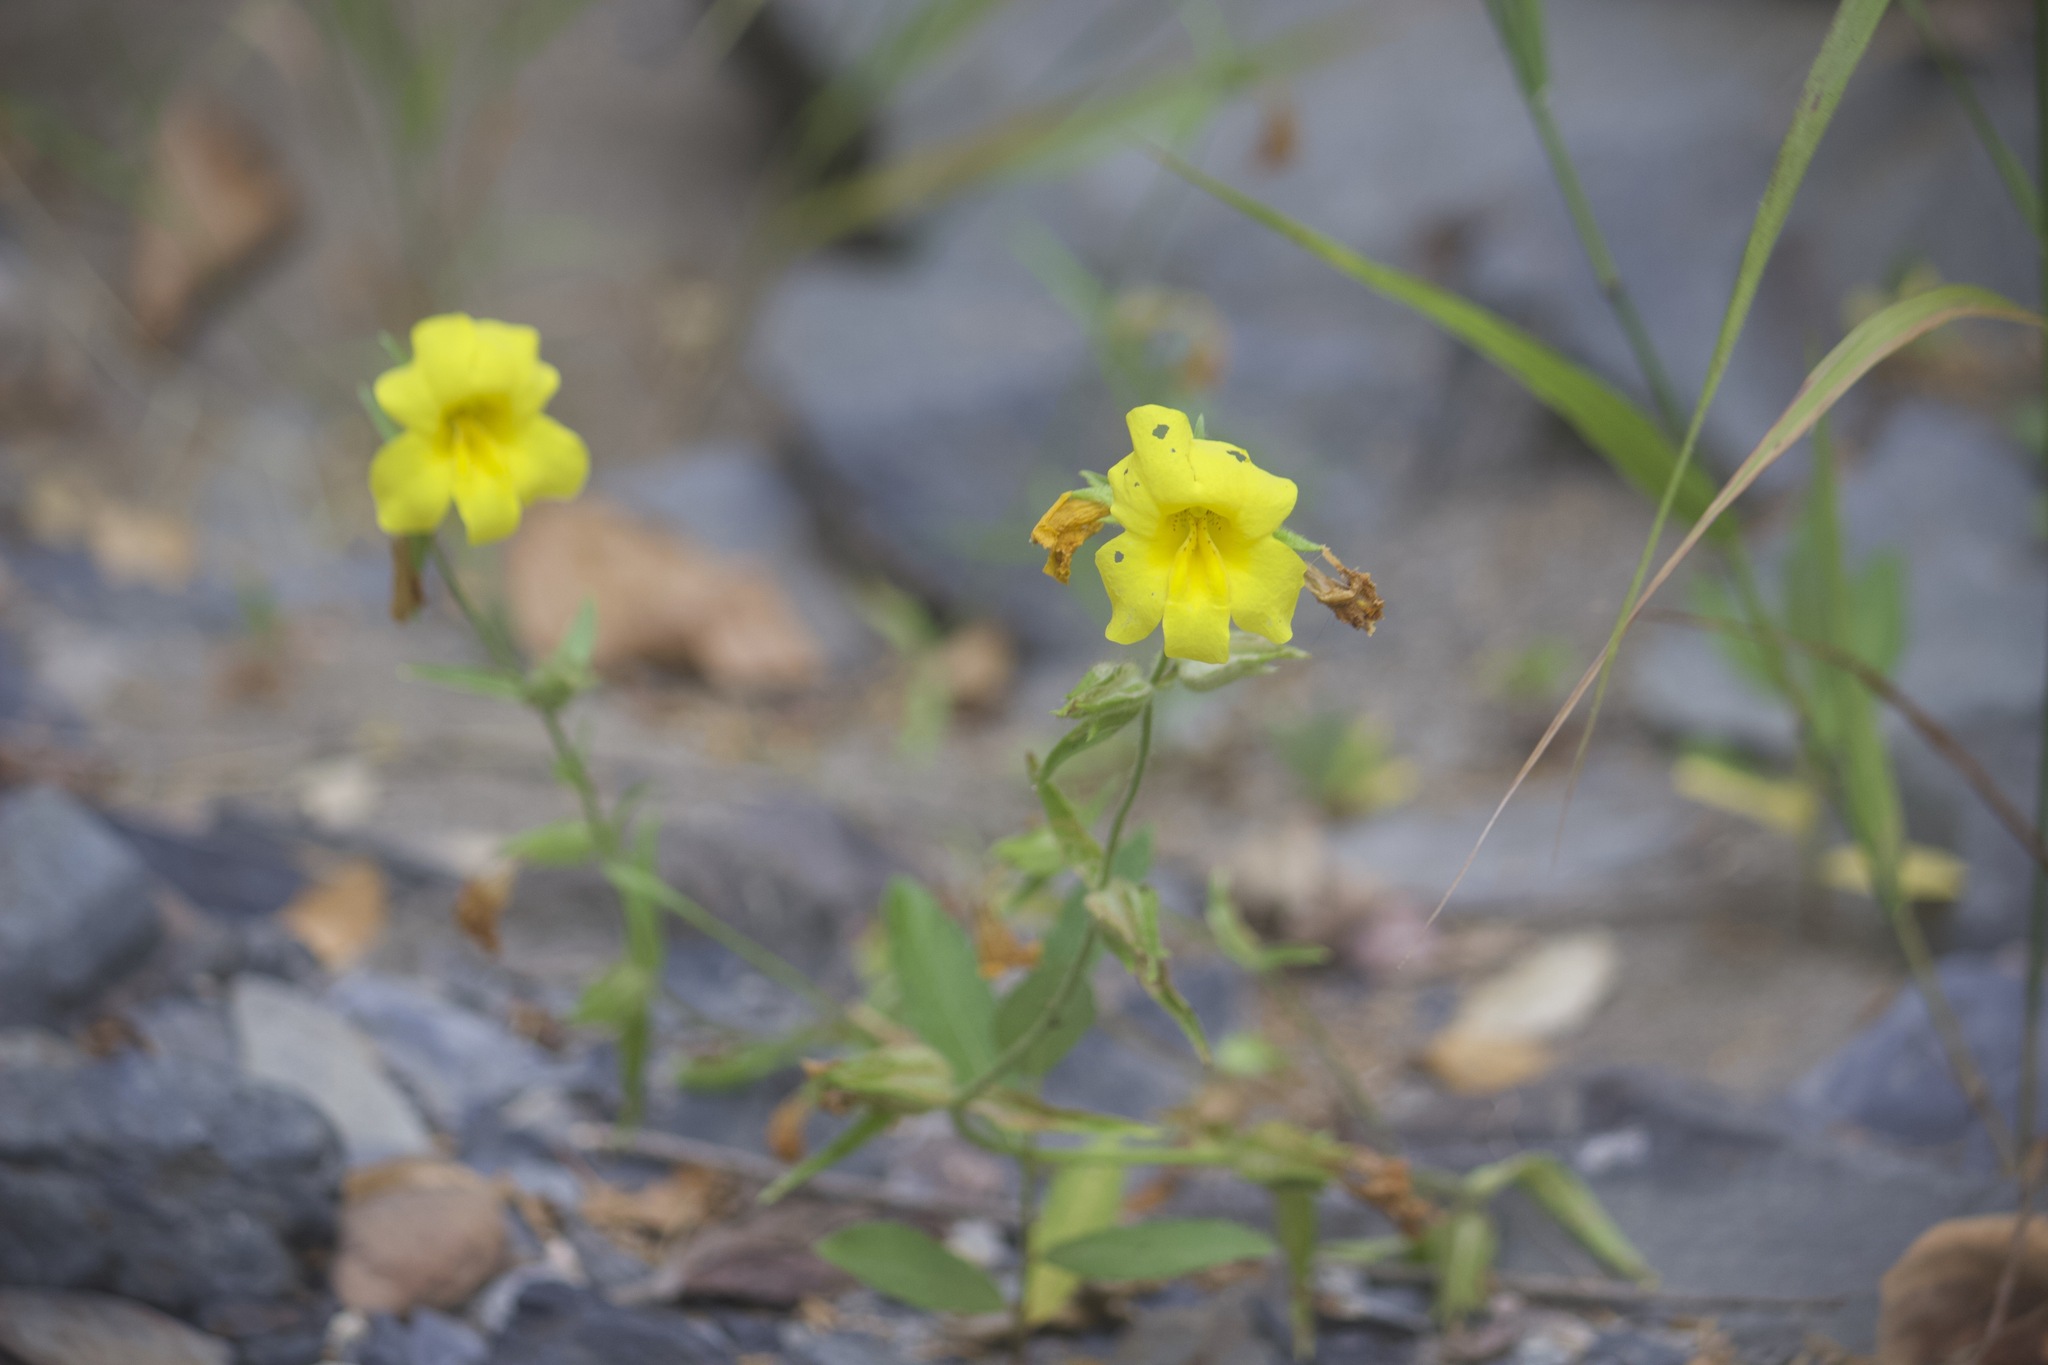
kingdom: Plantae
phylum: Tracheophyta
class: Magnoliopsida
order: Lamiales
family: Phrymaceae
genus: Diplacus
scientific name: Diplacus brevipes
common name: Wide-throat yellow monkey-flower
